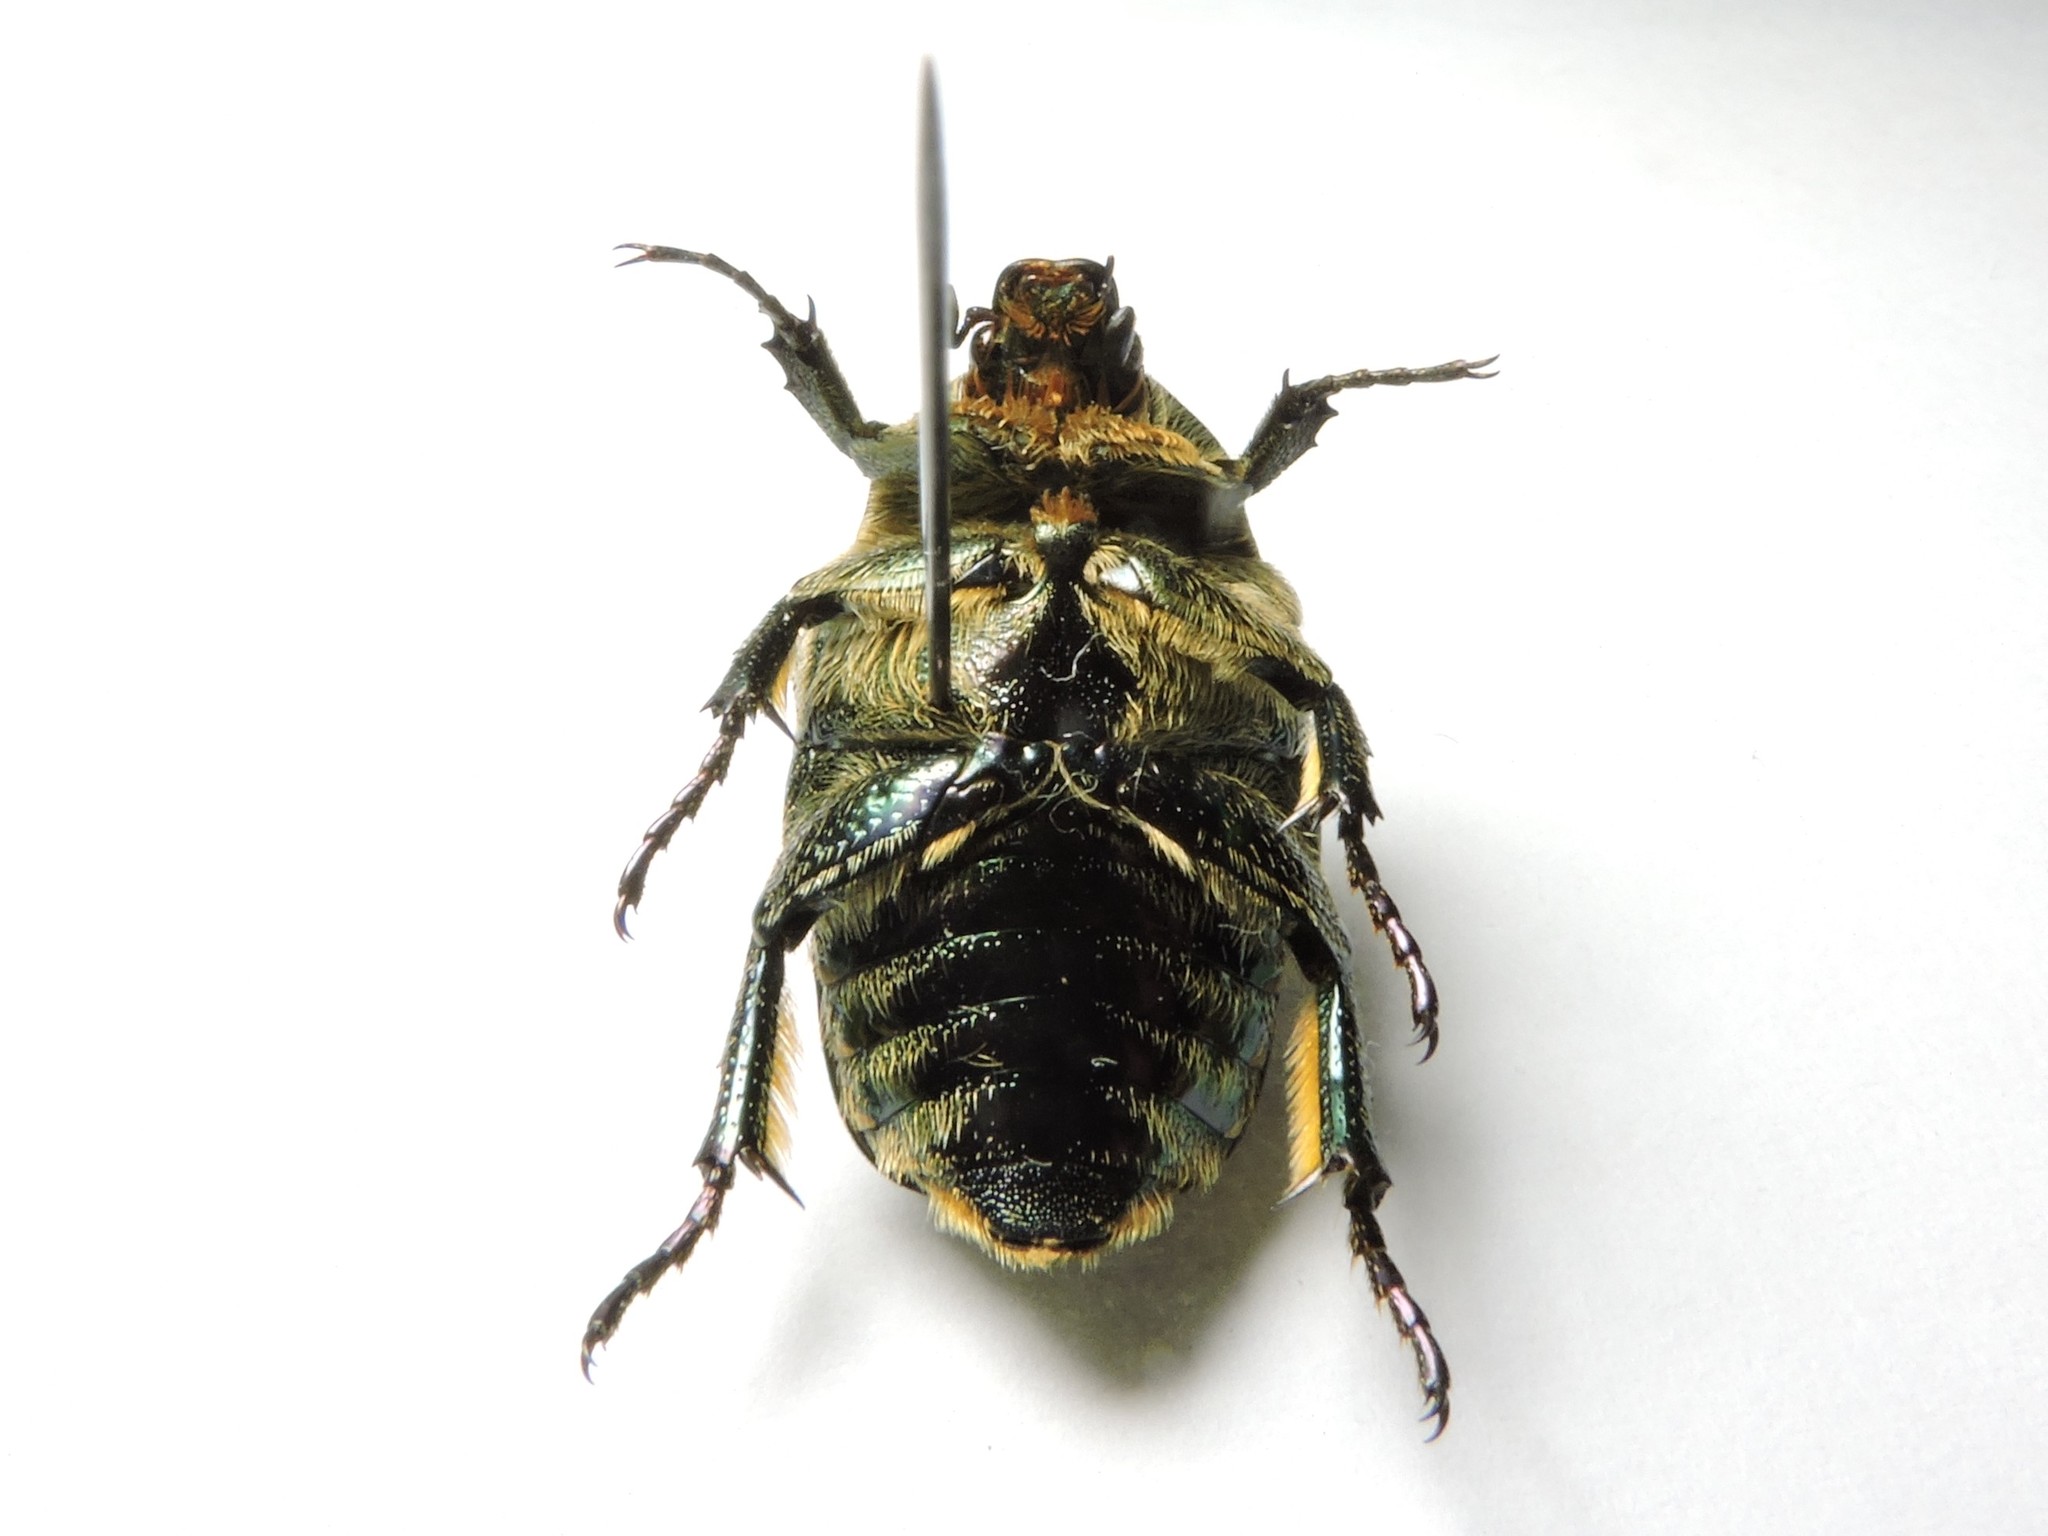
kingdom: Animalia
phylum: Arthropoda
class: Insecta
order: Coleoptera
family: Scarabaeidae
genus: Protaetia
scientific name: Protaetia cuprea
